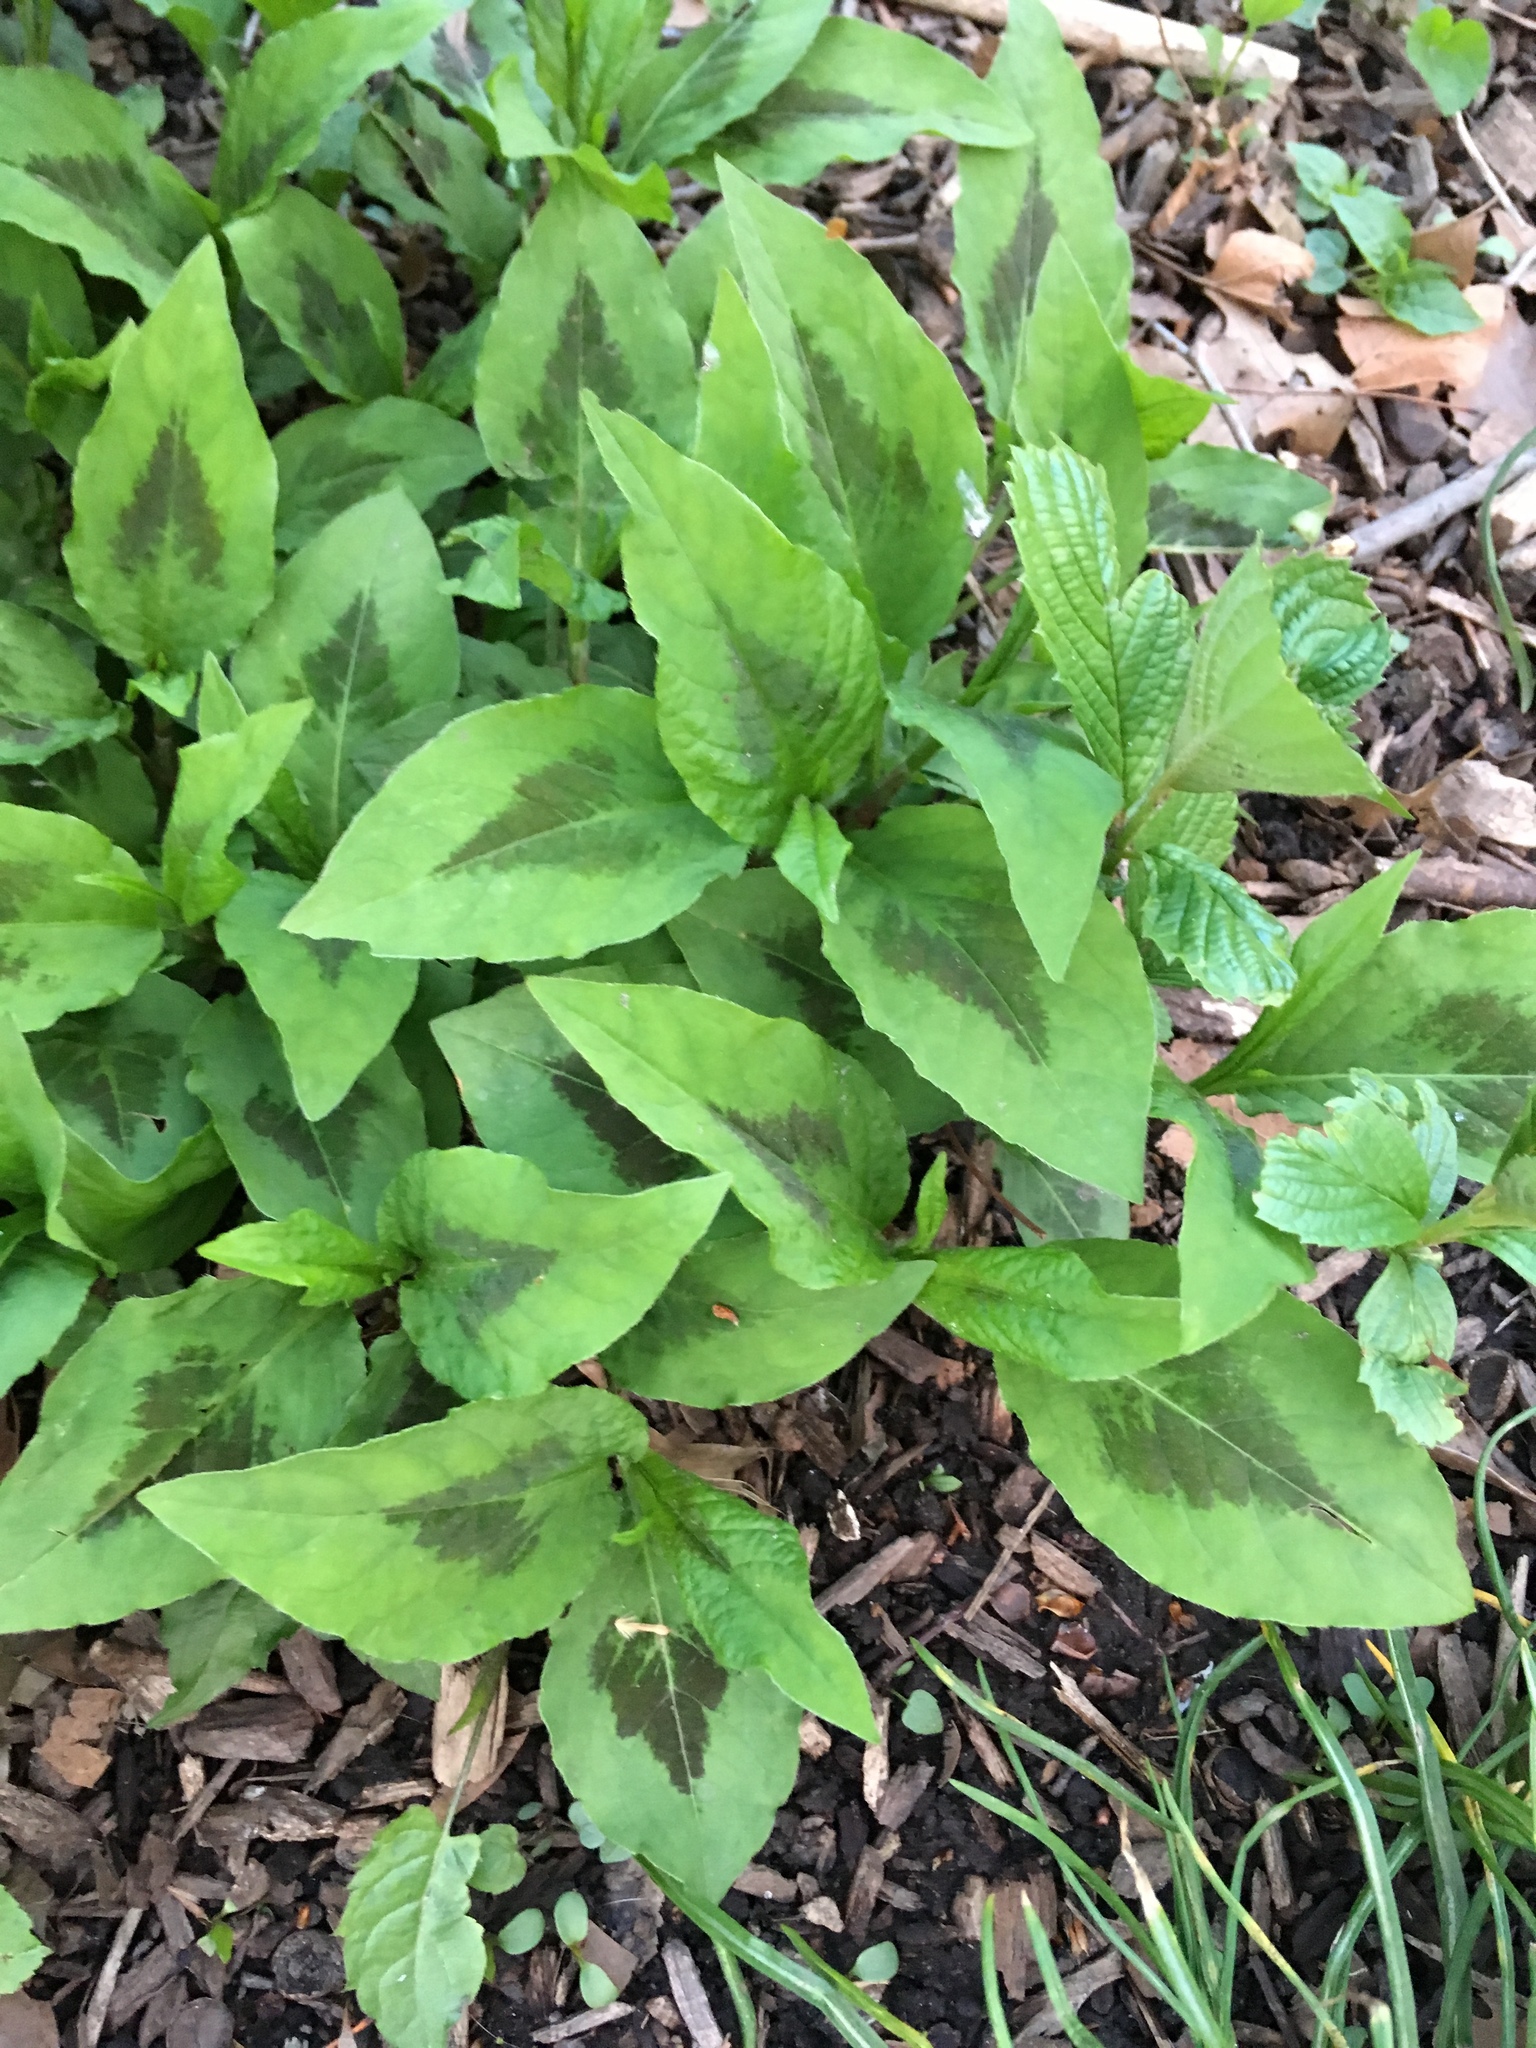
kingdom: Plantae
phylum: Tracheophyta
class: Magnoliopsida
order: Caryophyllales
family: Polygonaceae
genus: Persicaria
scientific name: Persicaria virginiana
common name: Jumpseed
